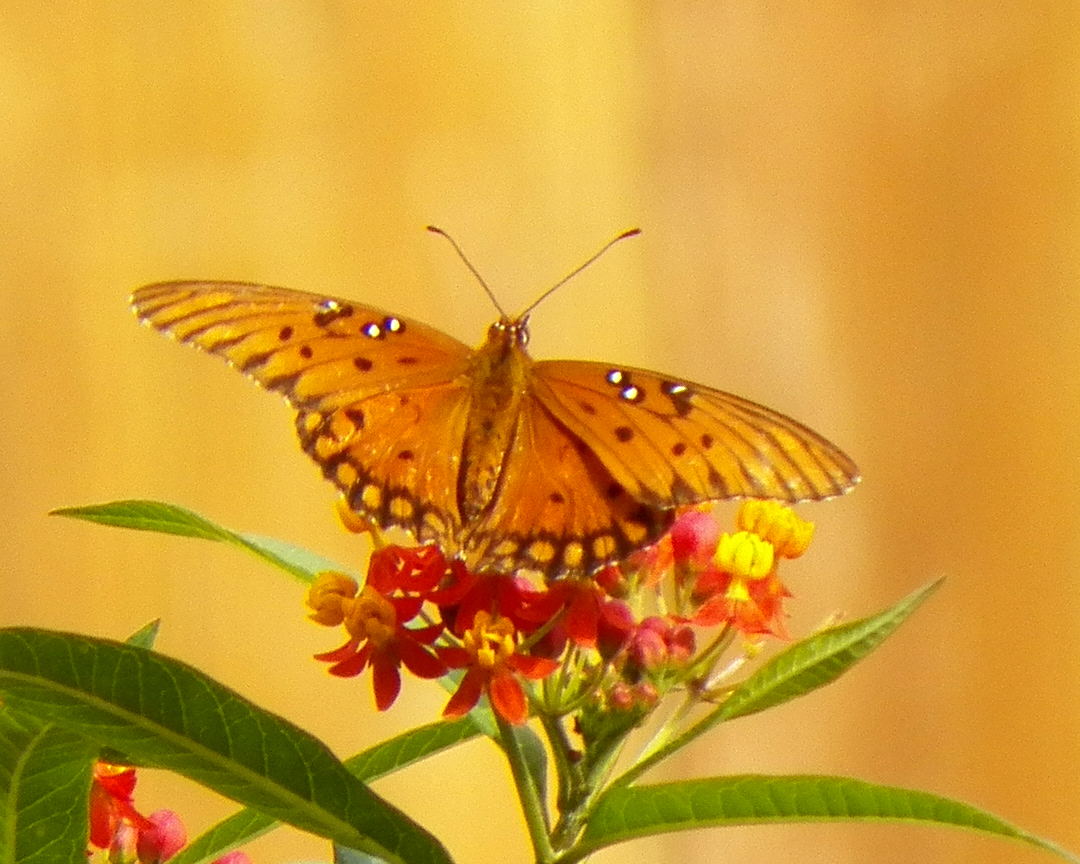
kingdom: Animalia
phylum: Arthropoda
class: Insecta
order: Lepidoptera
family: Nymphalidae
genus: Dione
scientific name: Dione vanillae
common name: Gulf fritillary
